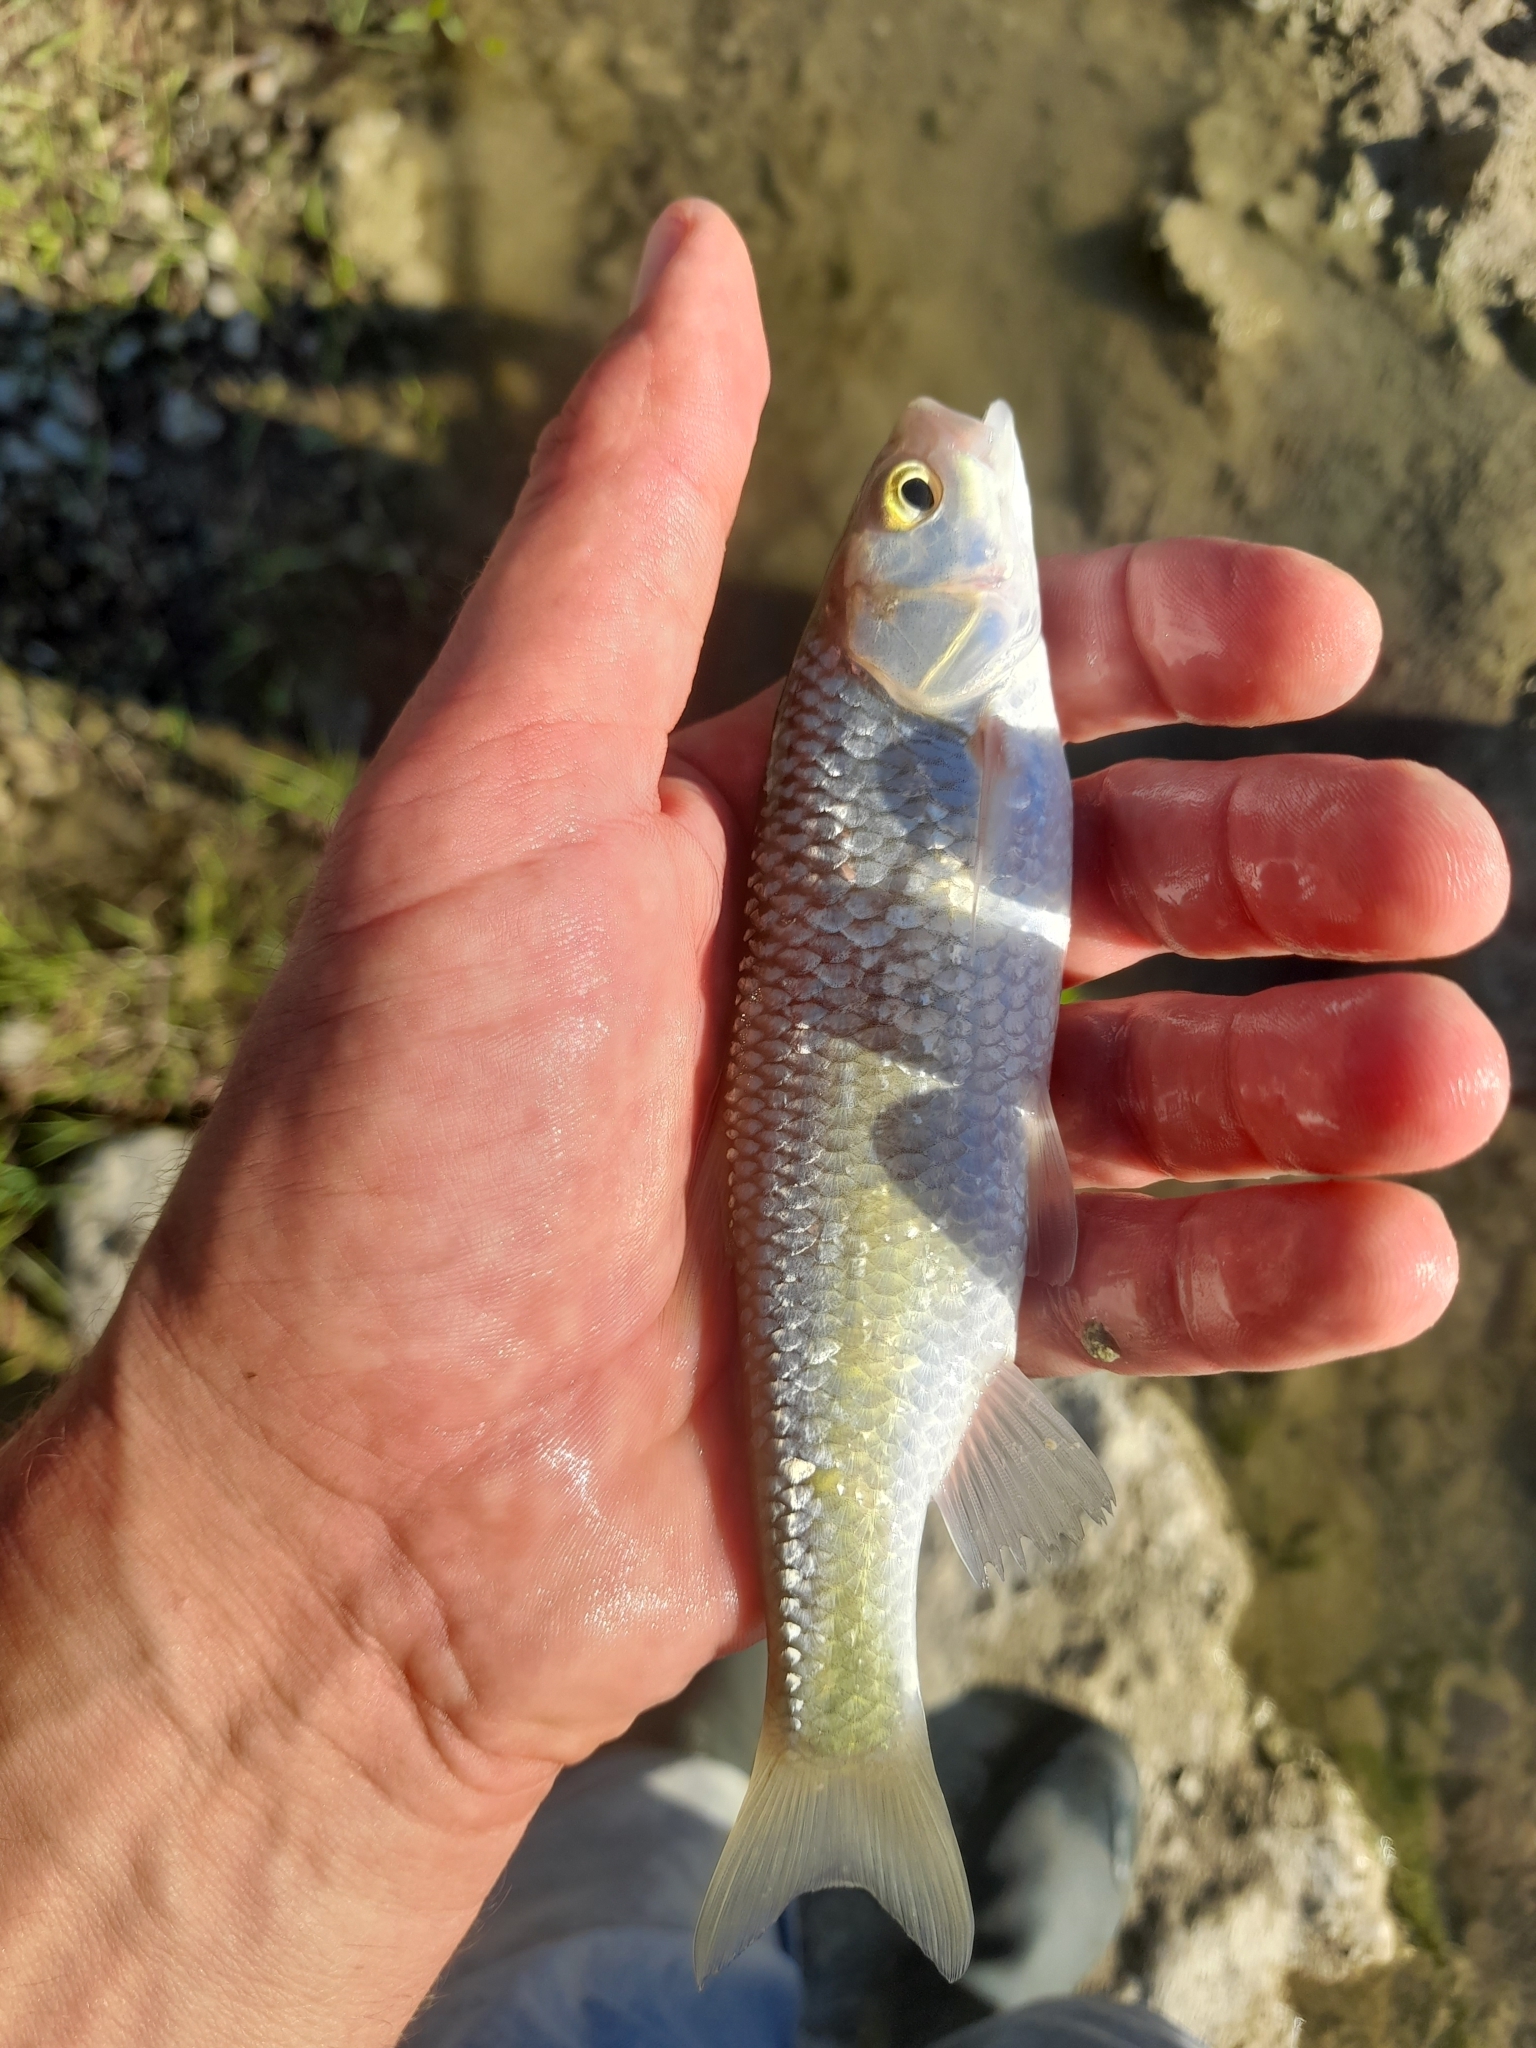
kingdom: Animalia
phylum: Chordata
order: Cypriniformes
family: Cyprinidae
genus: Squalius
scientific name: Squalius lucumonis
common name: Toscana stream chub
